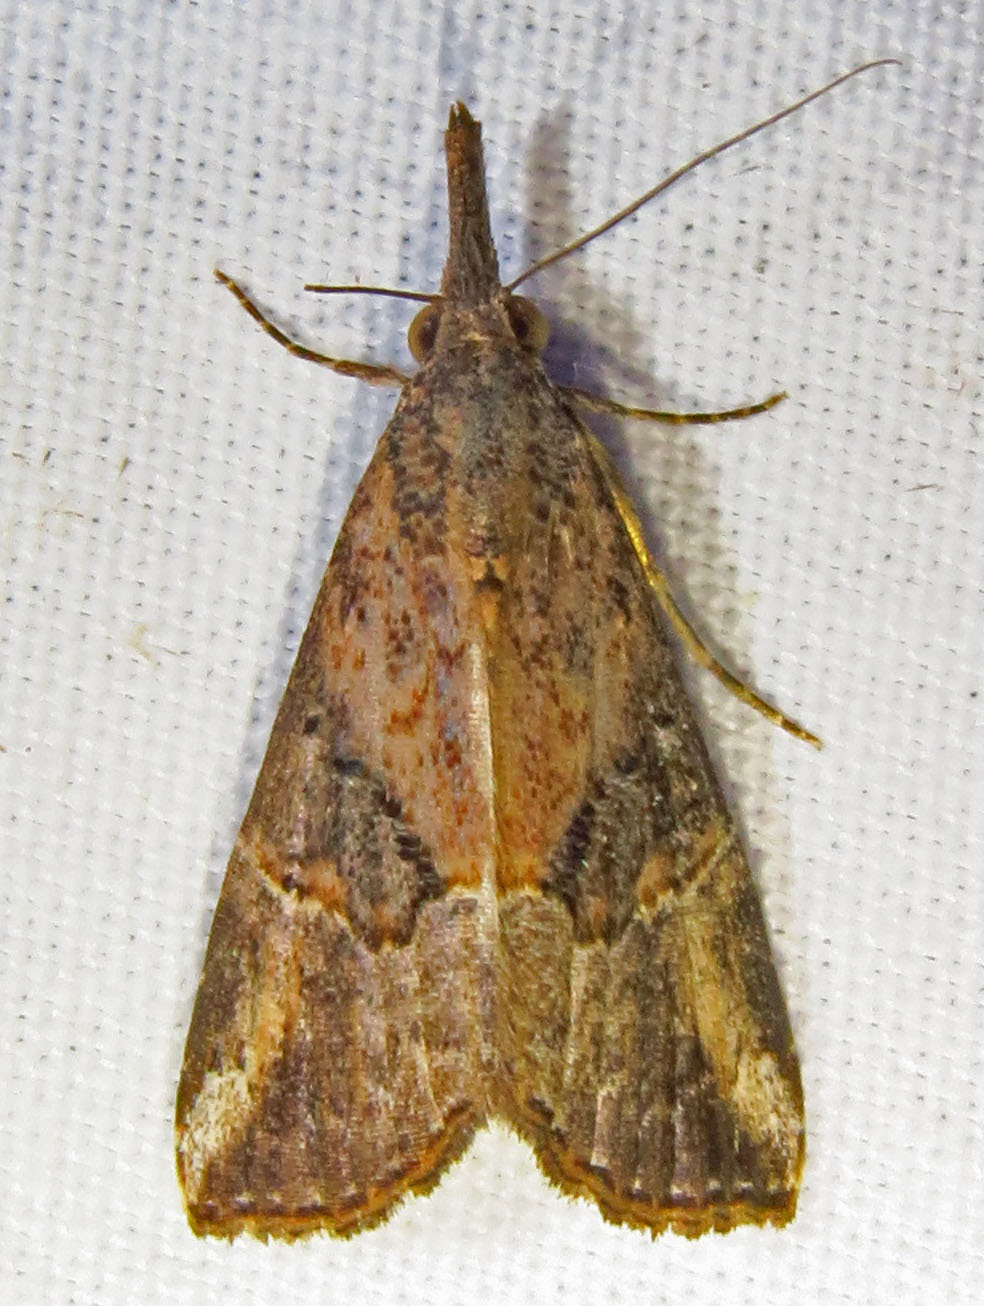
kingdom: Animalia
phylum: Arthropoda
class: Insecta
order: Lepidoptera
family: Erebidae
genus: Hypena
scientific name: Hypena minualis
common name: Sooty snout
